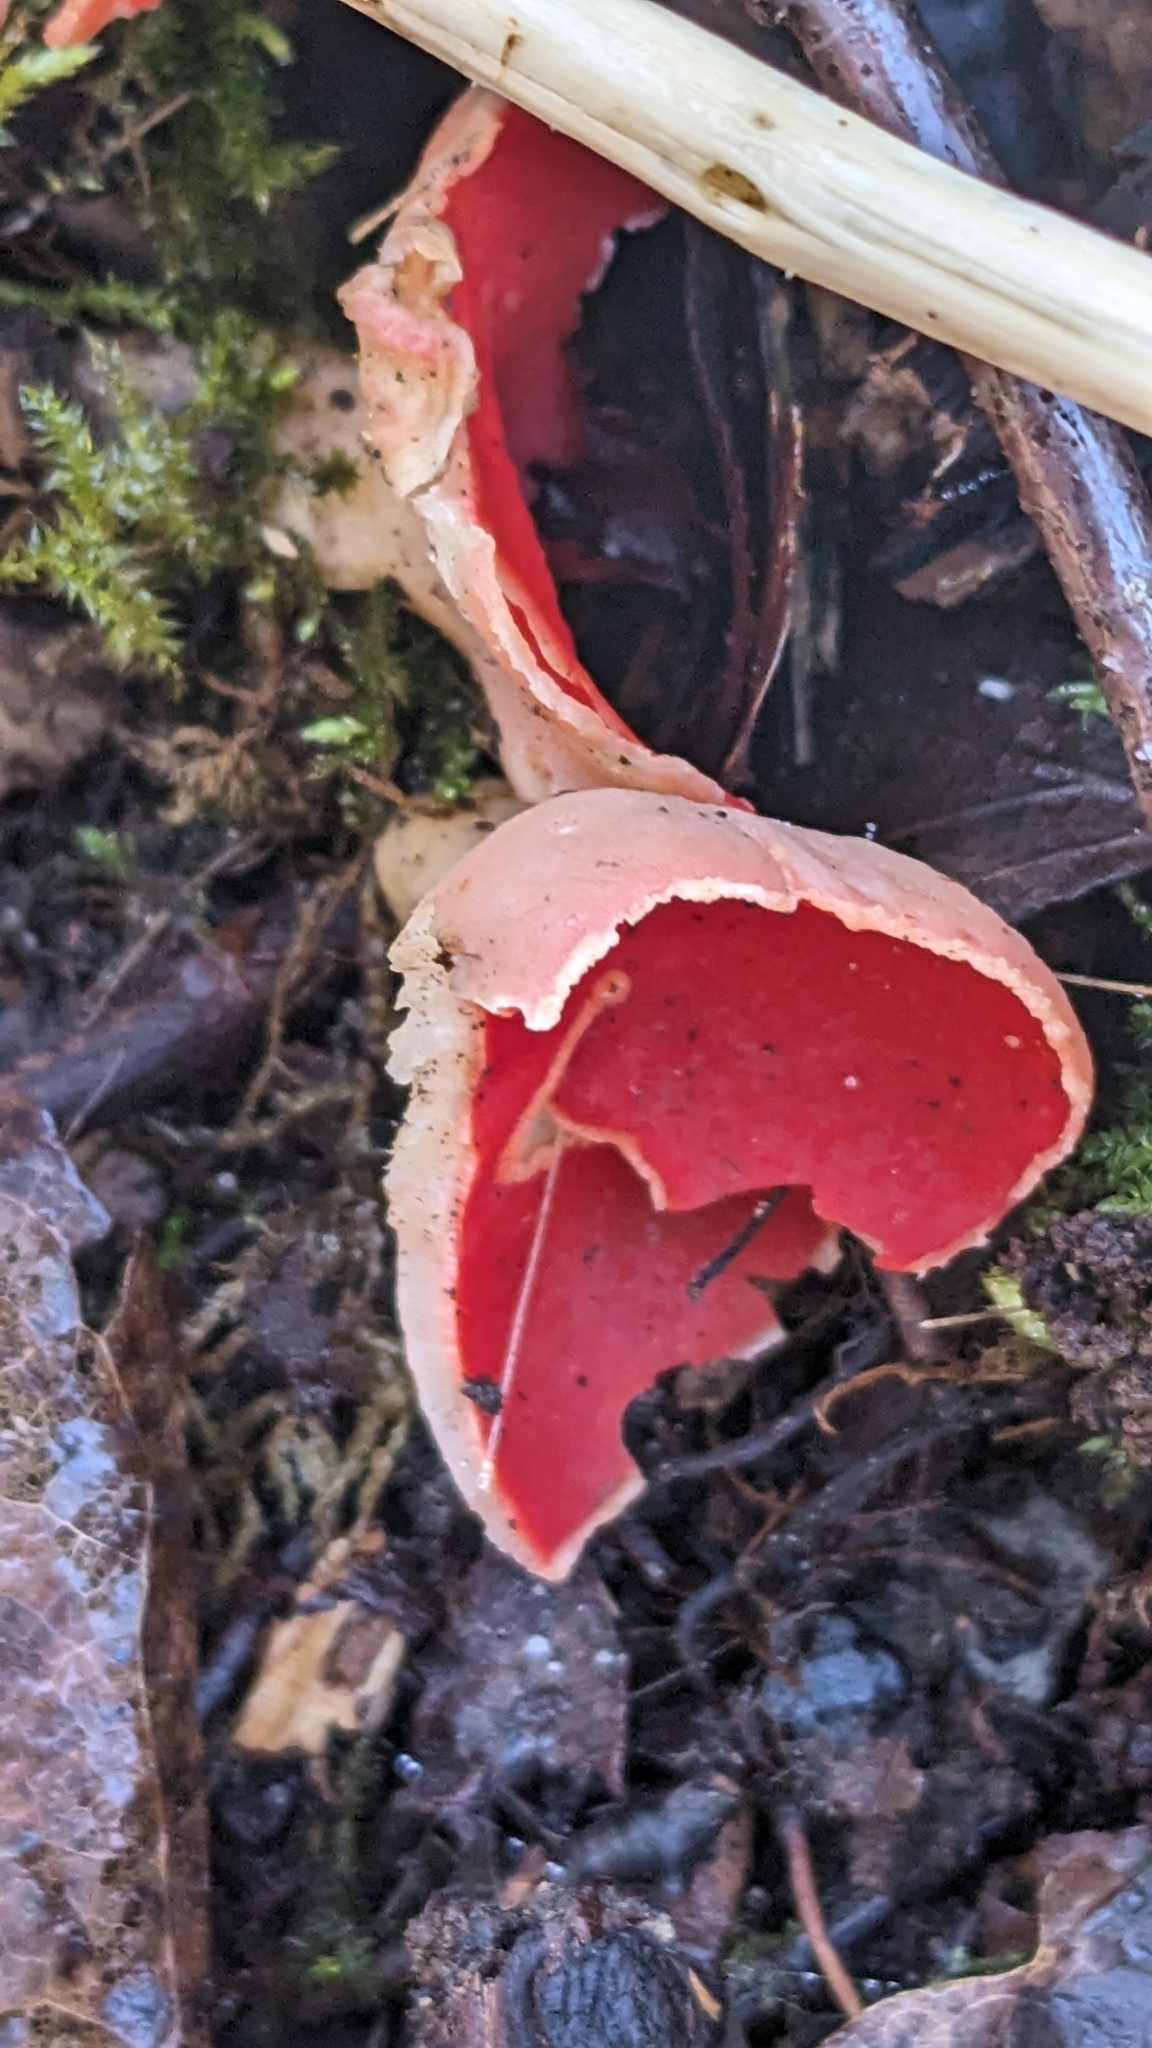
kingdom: Fungi
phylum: Ascomycota
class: Pezizomycetes
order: Pezizales
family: Sarcoscyphaceae
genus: Sarcoscypha
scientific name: Sarcoscypha
